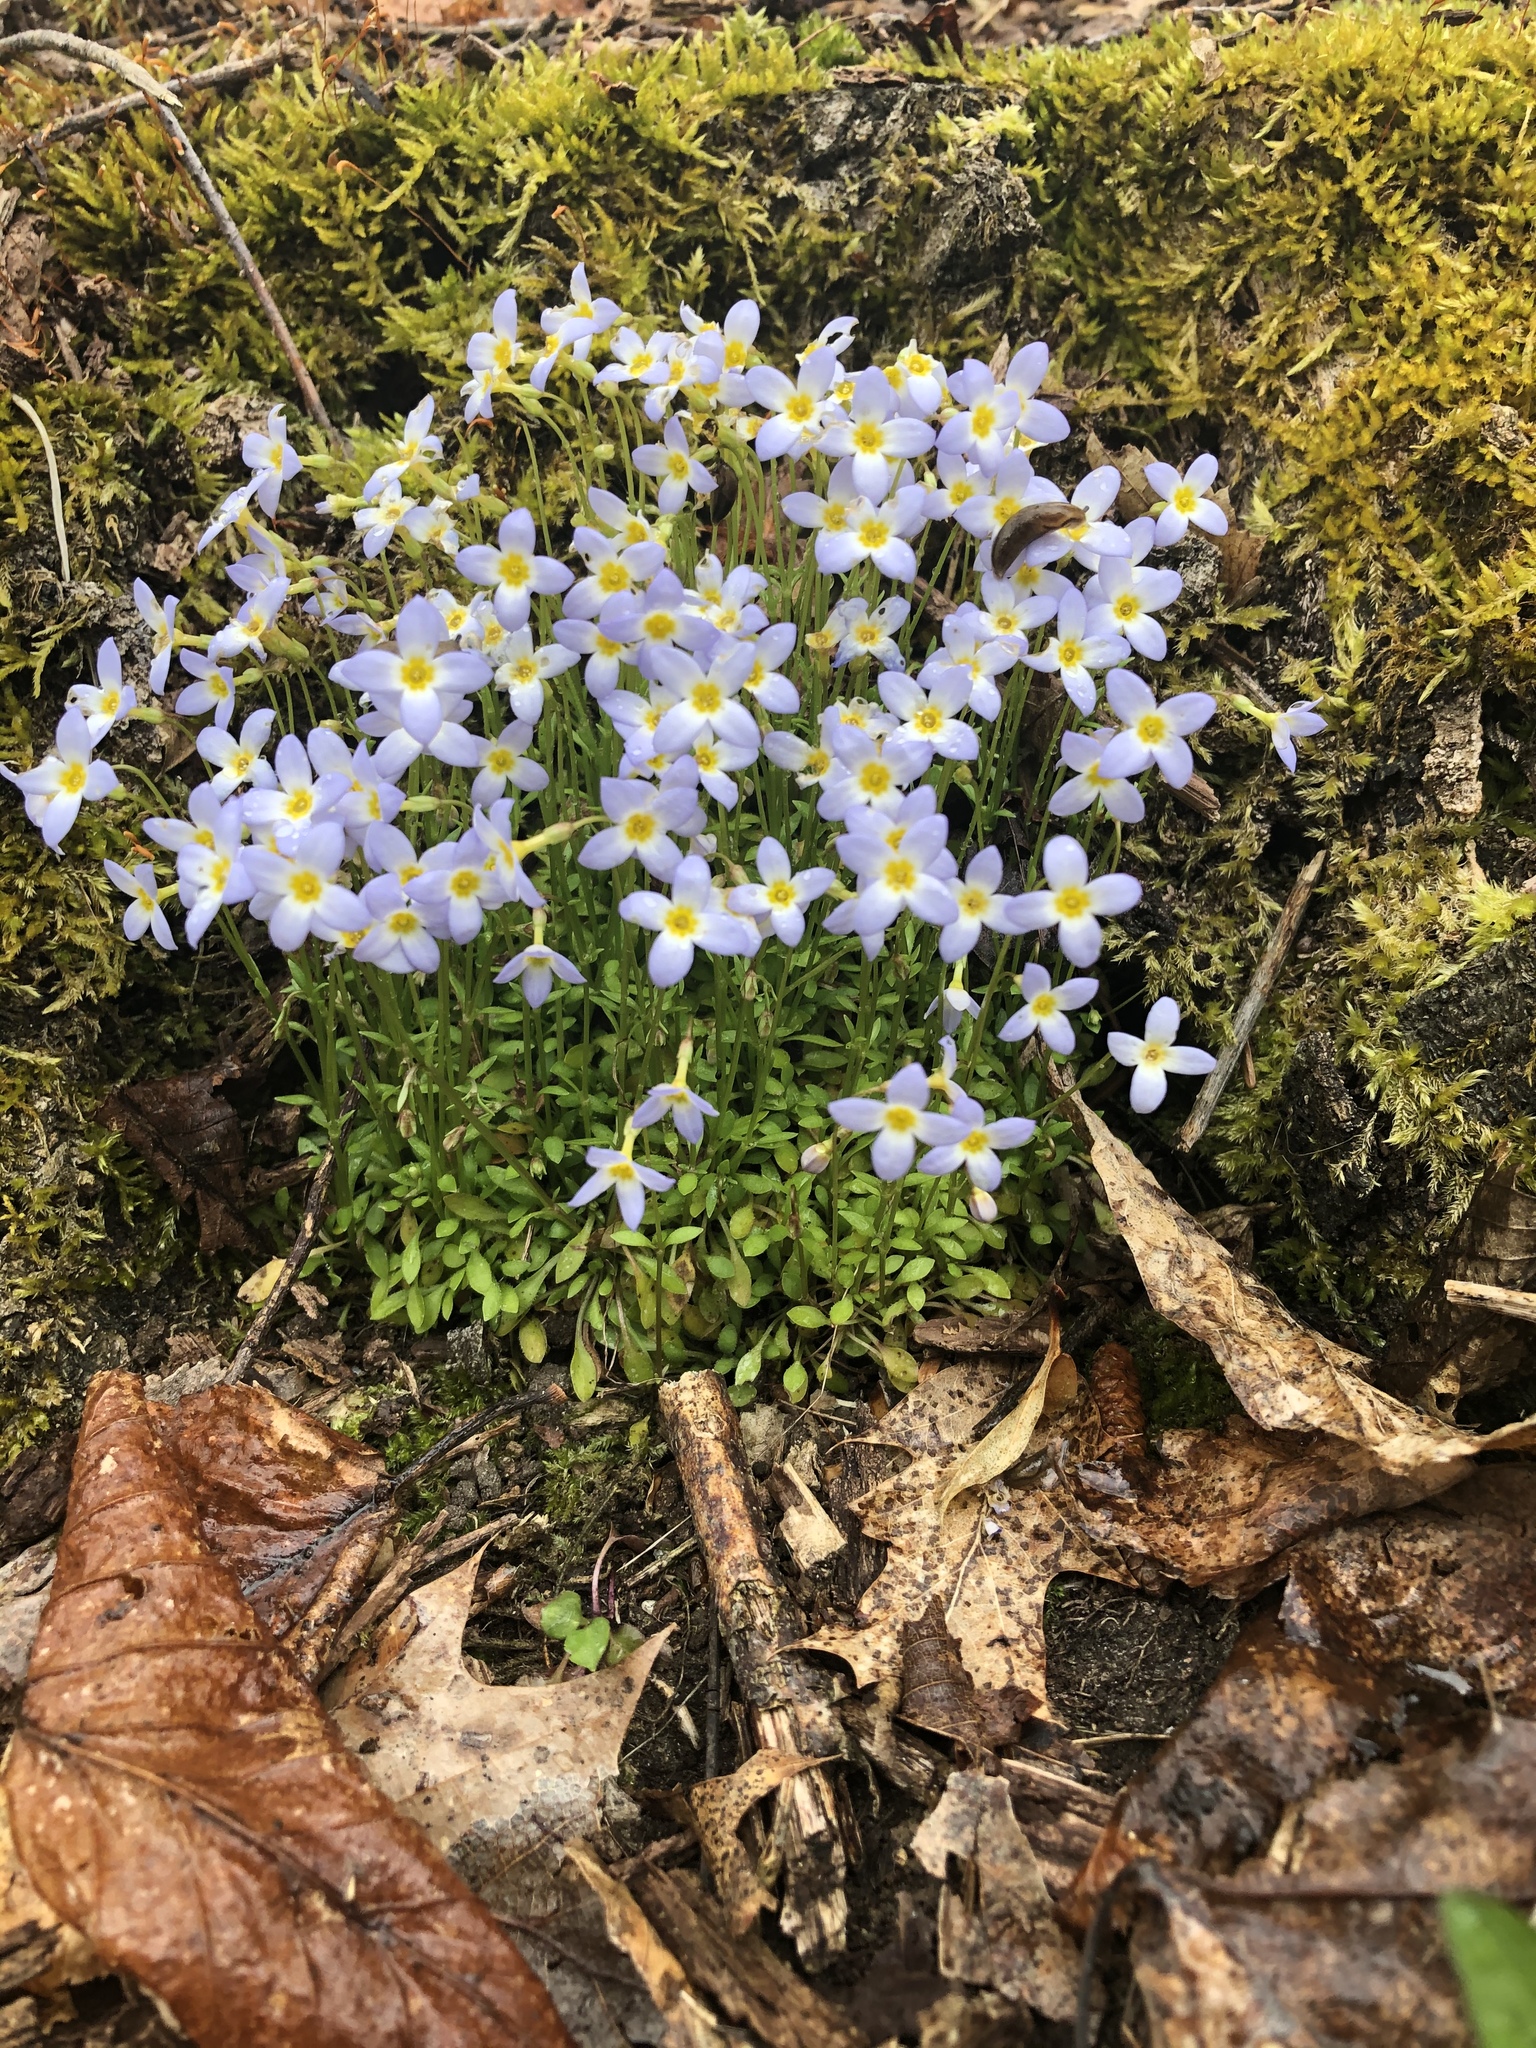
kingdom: Plantae
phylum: Tracheophyta
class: Magnoliopsida
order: Gentianales
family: Rubiaceae
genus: Houstonia
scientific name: Houstonia caerulea
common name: Bluets
